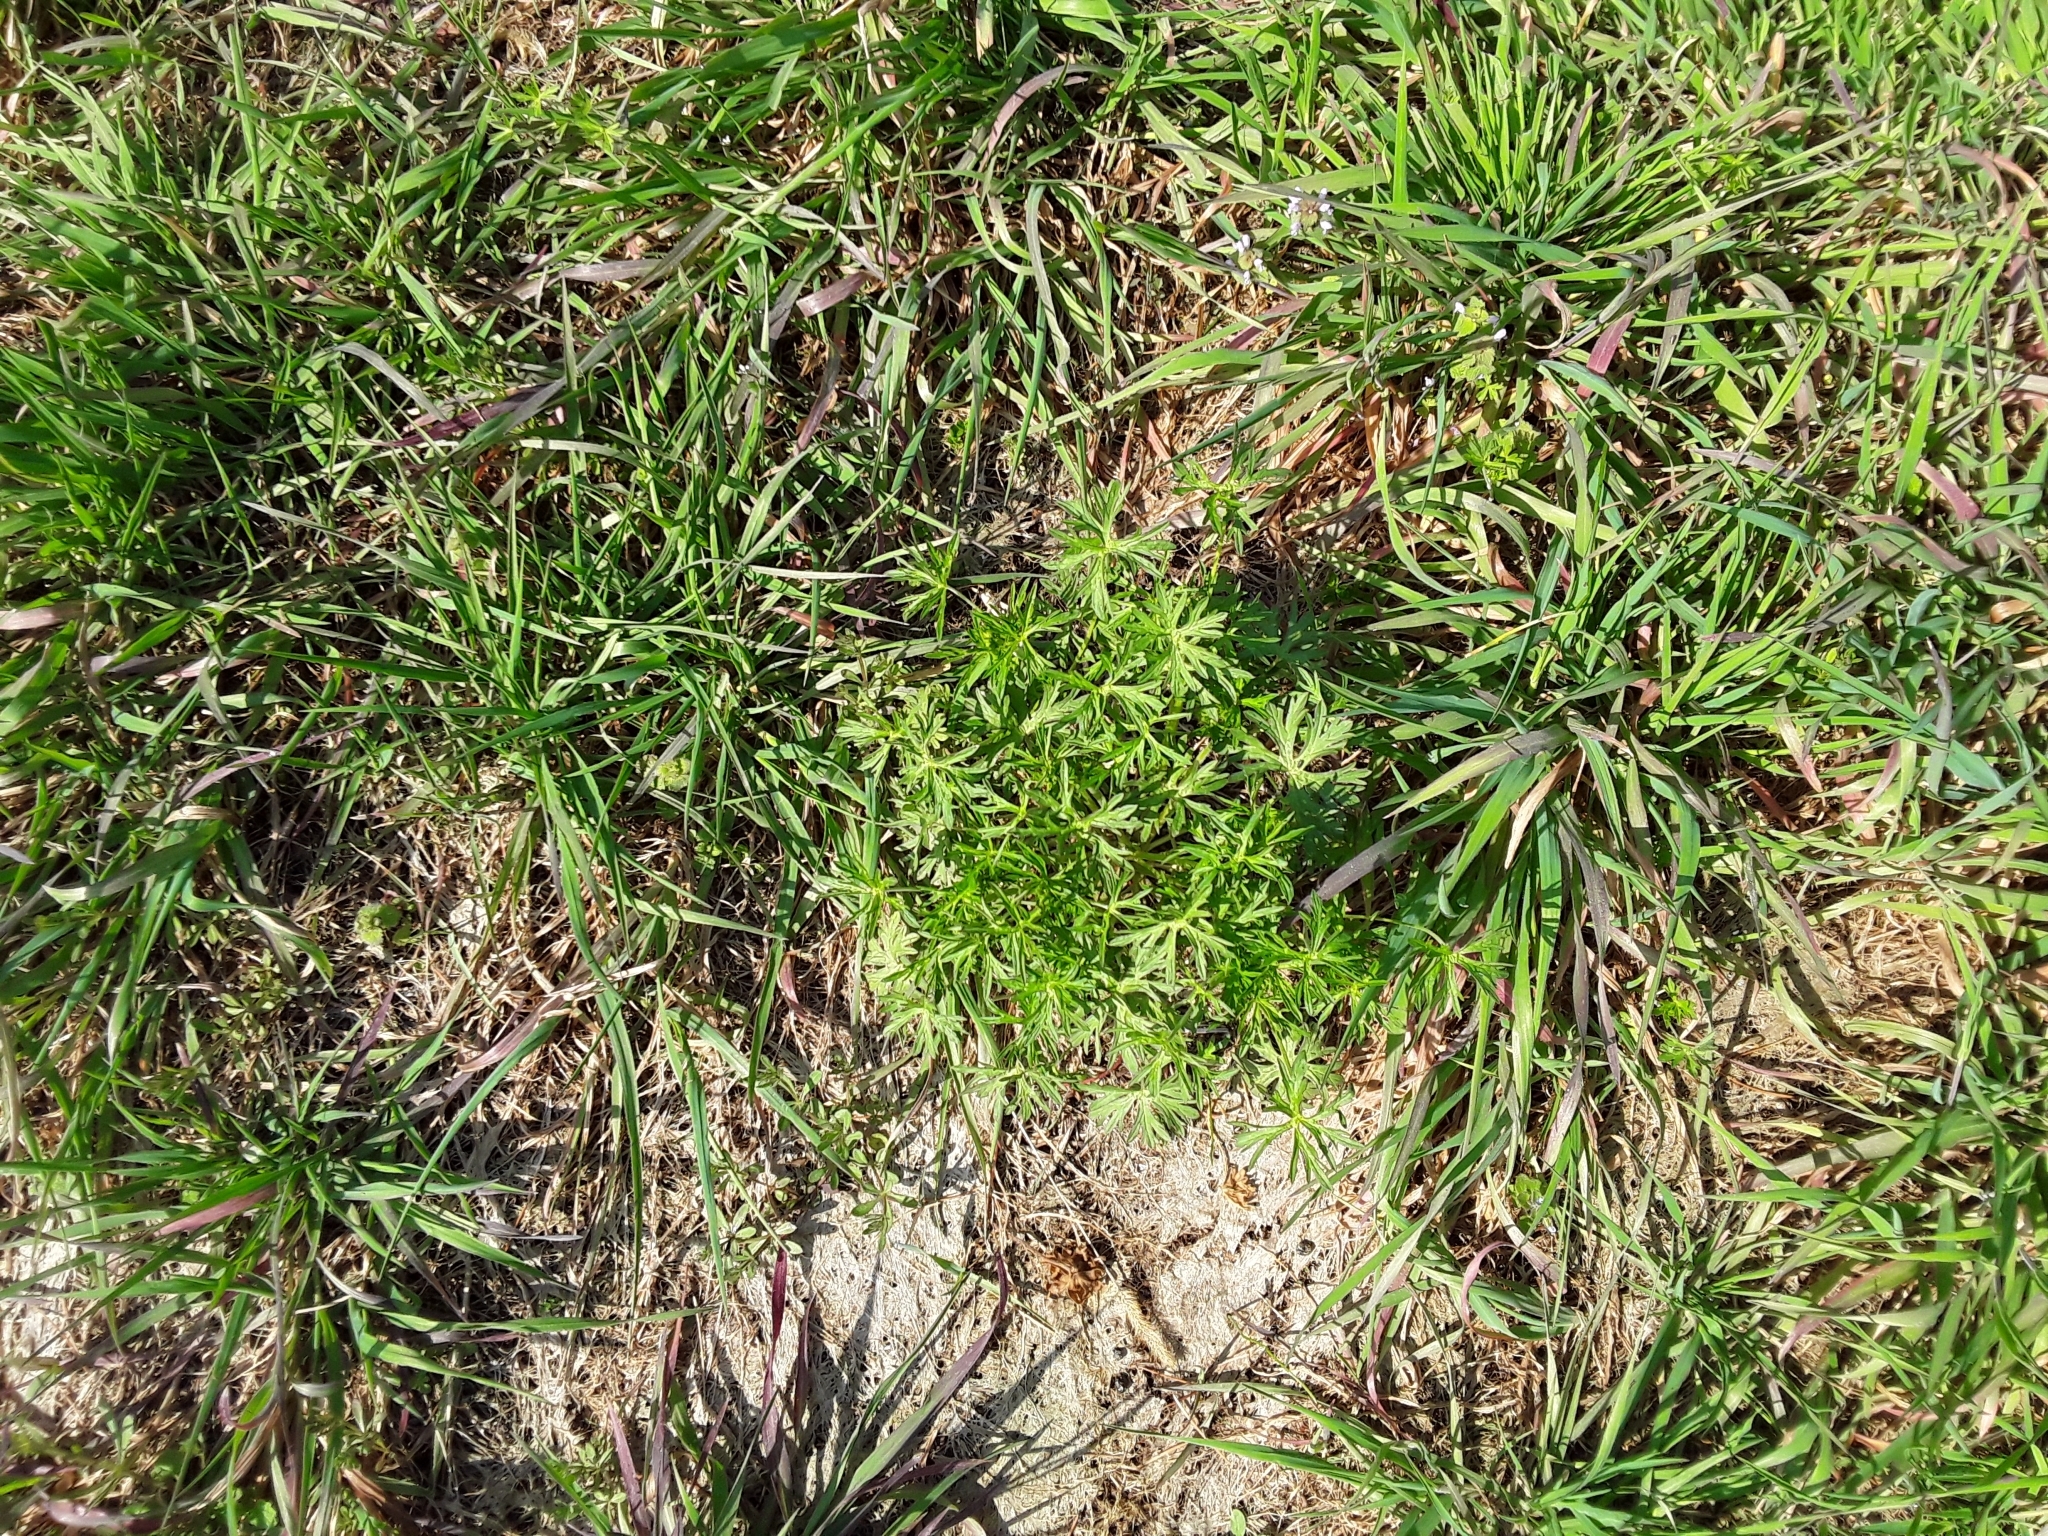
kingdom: Plantae
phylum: Tracheophyta
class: Magnoliopsida
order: Geraniales
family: Geraniaceae
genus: Geranium
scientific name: Geranium dissectum
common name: Cut-leaved crane's-bill
